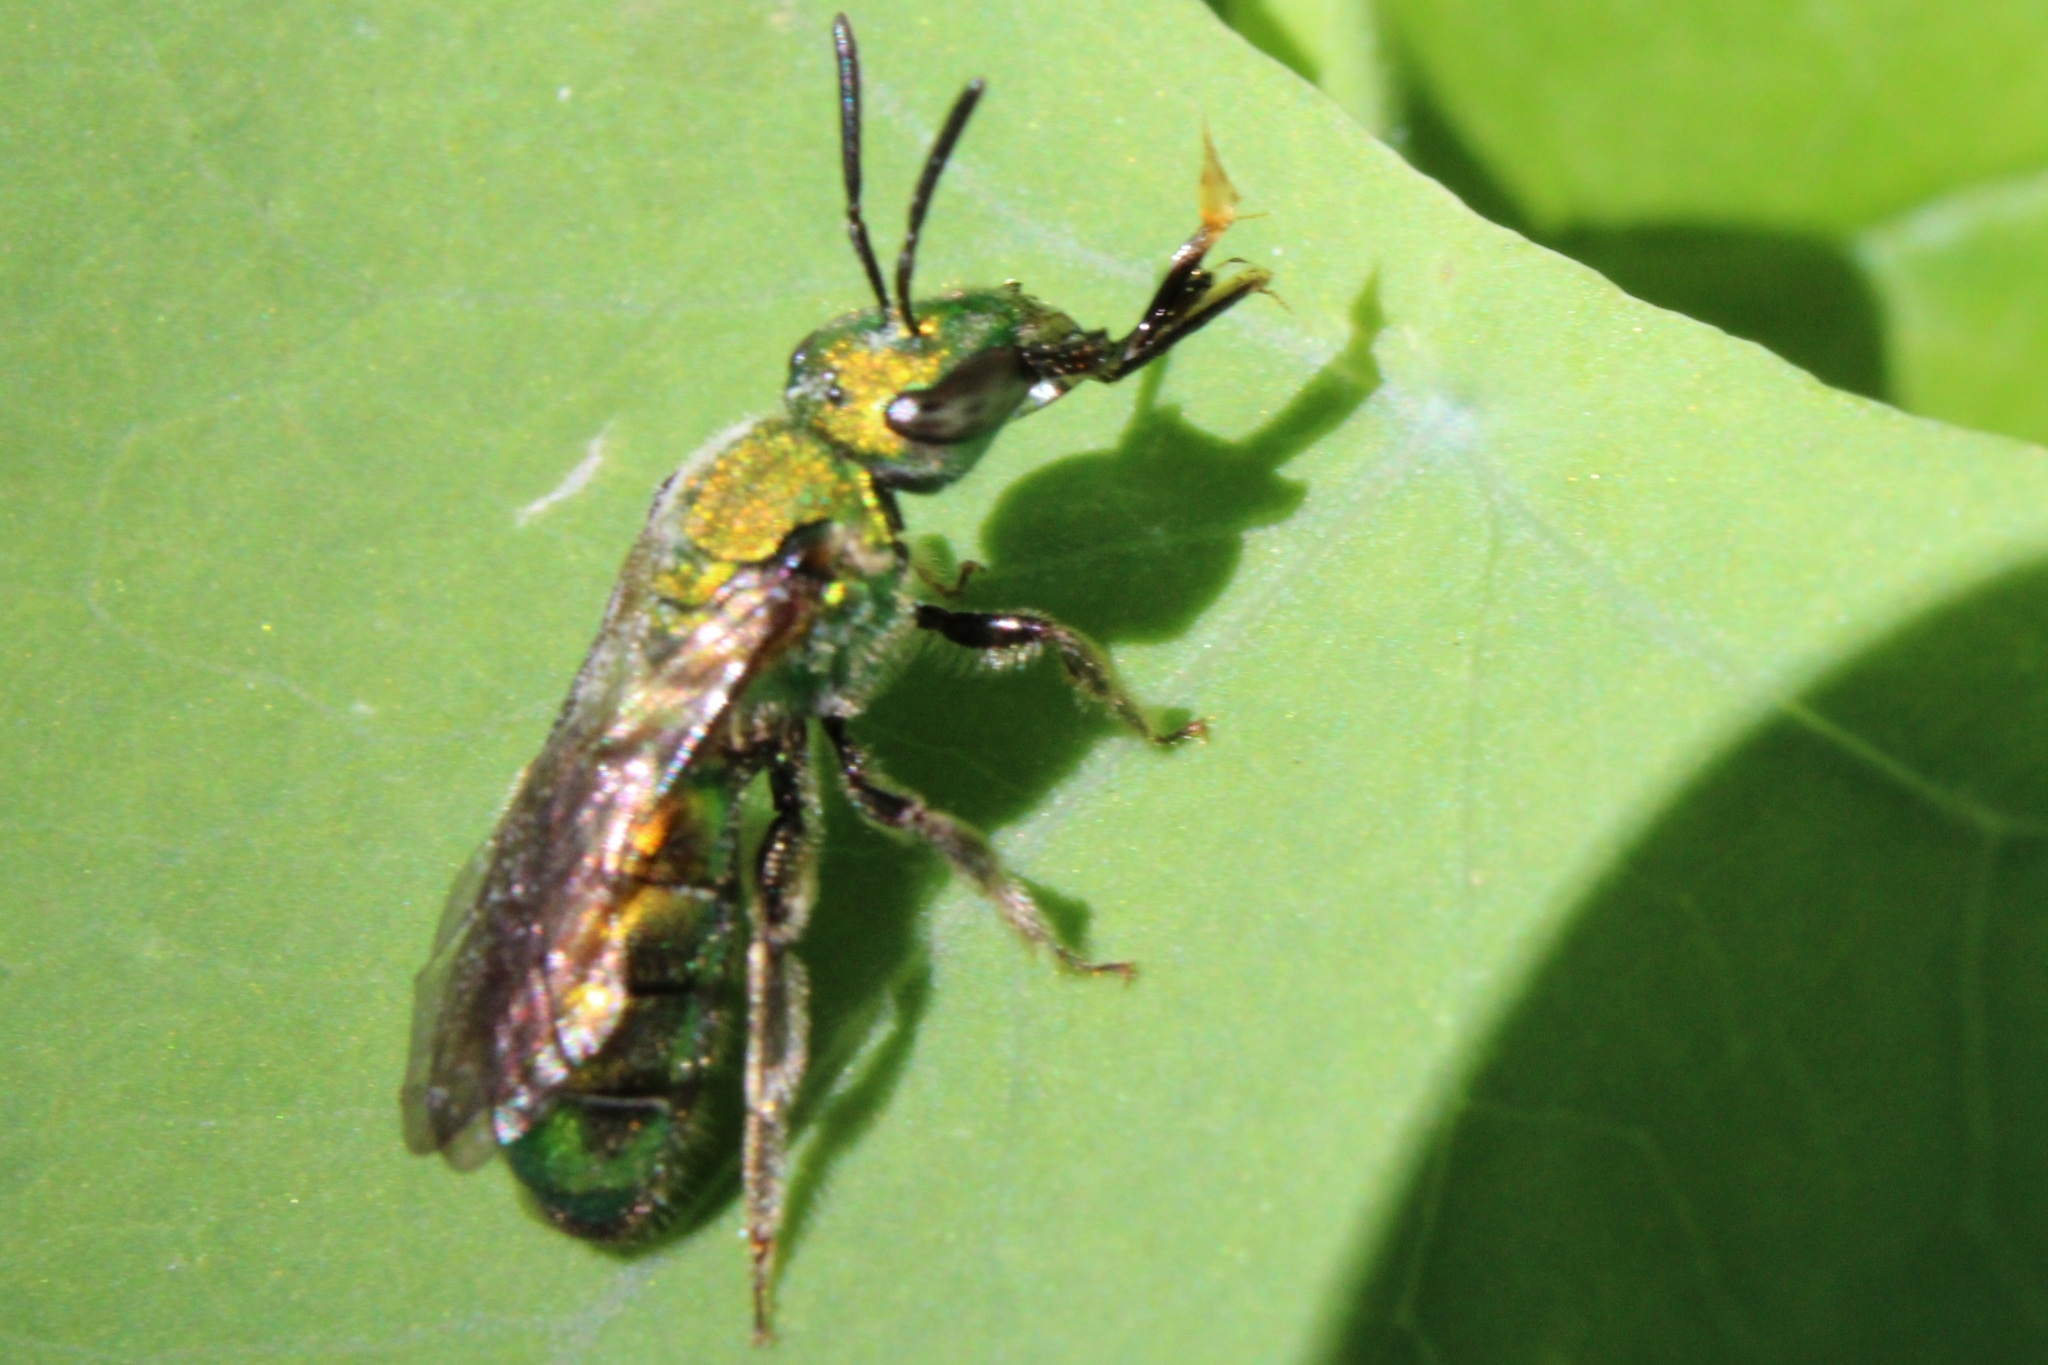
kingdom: Animalia
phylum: Arthropoda
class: Insecta
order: Hymenoptera
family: Halictidae
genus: Augochlora
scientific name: Augochlora pura
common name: Pure green sweat bee
